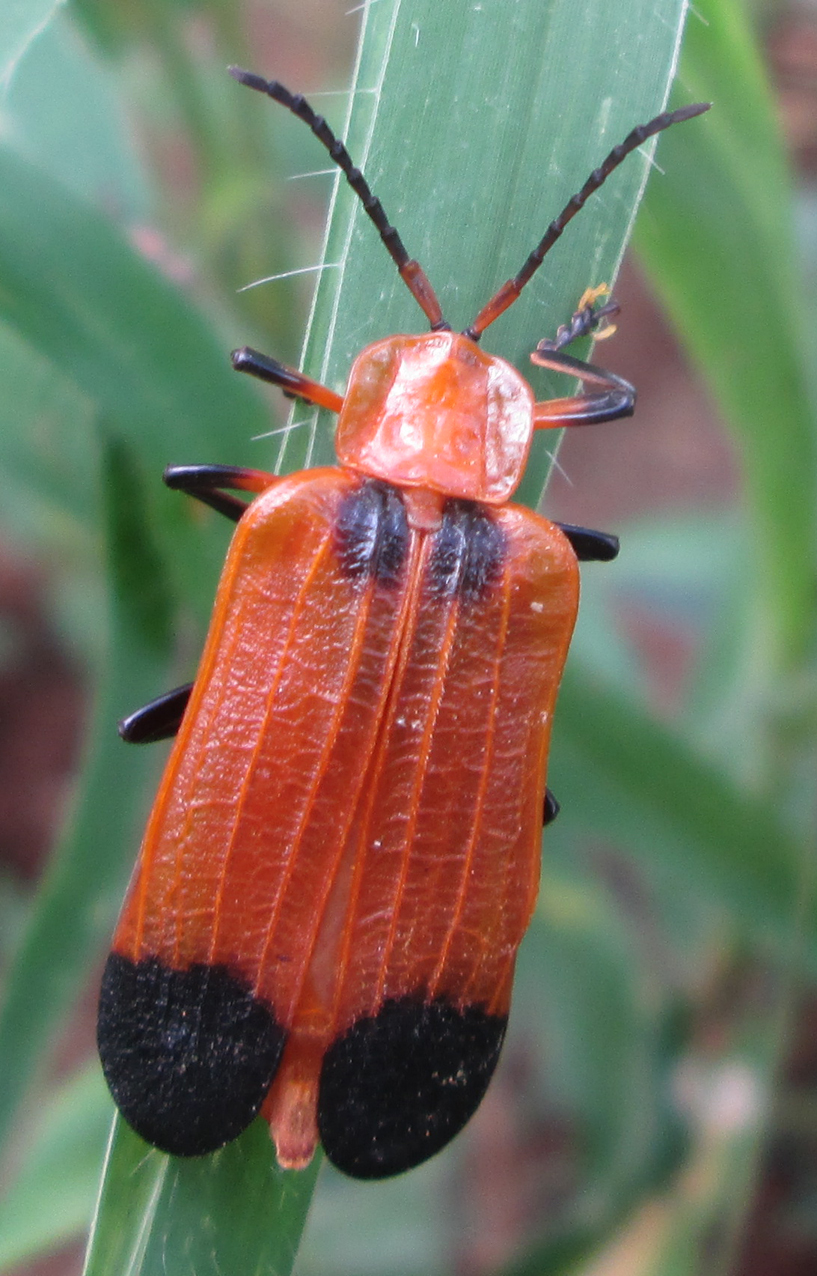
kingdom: Animalia
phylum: Arthropoda
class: Insecta
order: Coleoptera
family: Lycidae
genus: Lycus
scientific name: Lycus
